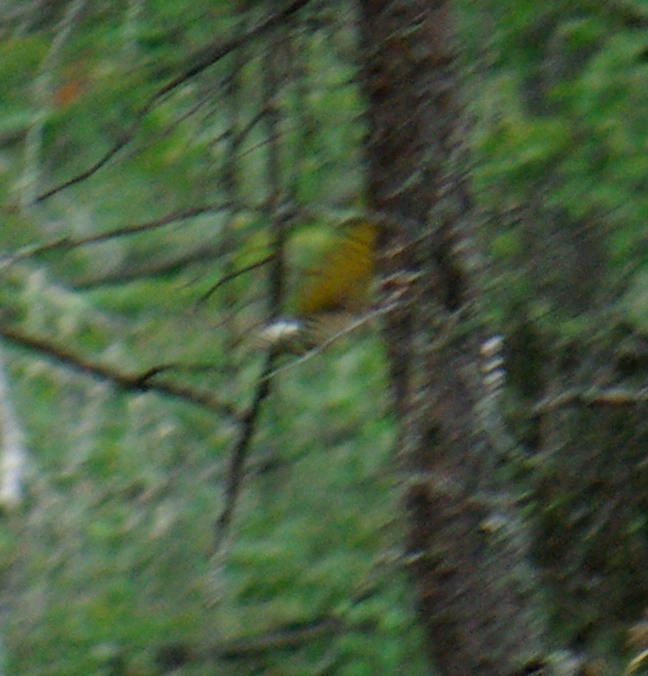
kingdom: Animalia
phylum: Chordata
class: Aves
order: Piciformes
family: Picidae
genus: Colaptes
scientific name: Colaptes auratus
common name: Northern flicker
